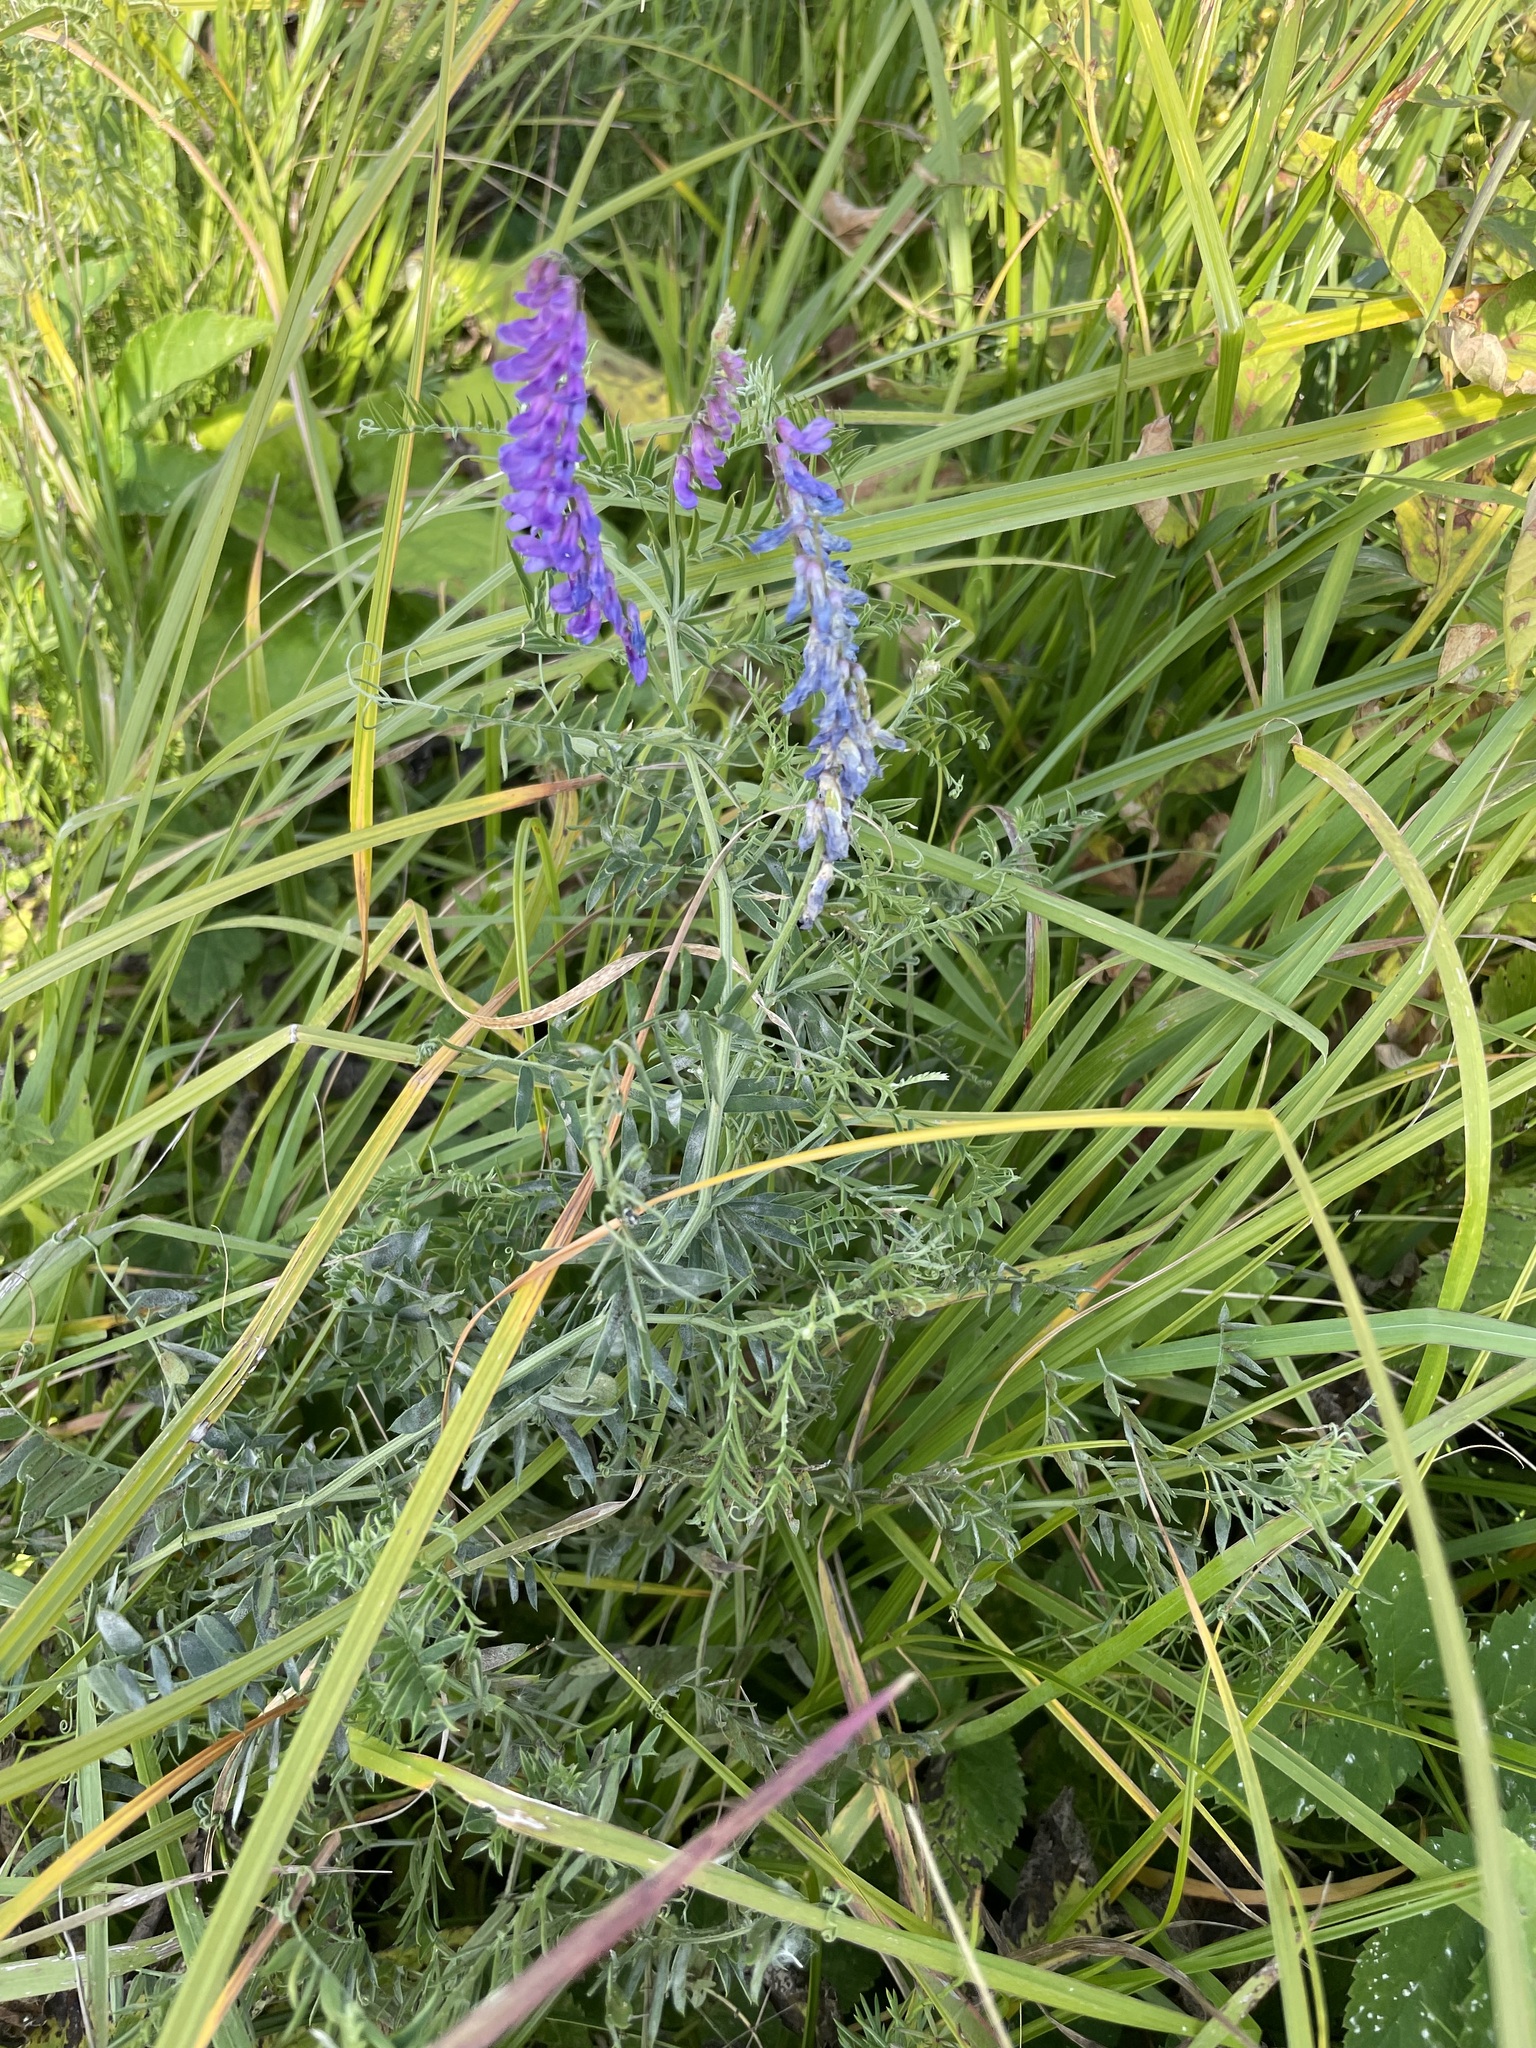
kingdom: Plantae
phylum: Tracheophyta
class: Magnoliopsida
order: Fabales
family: Fabaceae
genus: Vicia
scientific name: Vicia cracca
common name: Bird vetch
